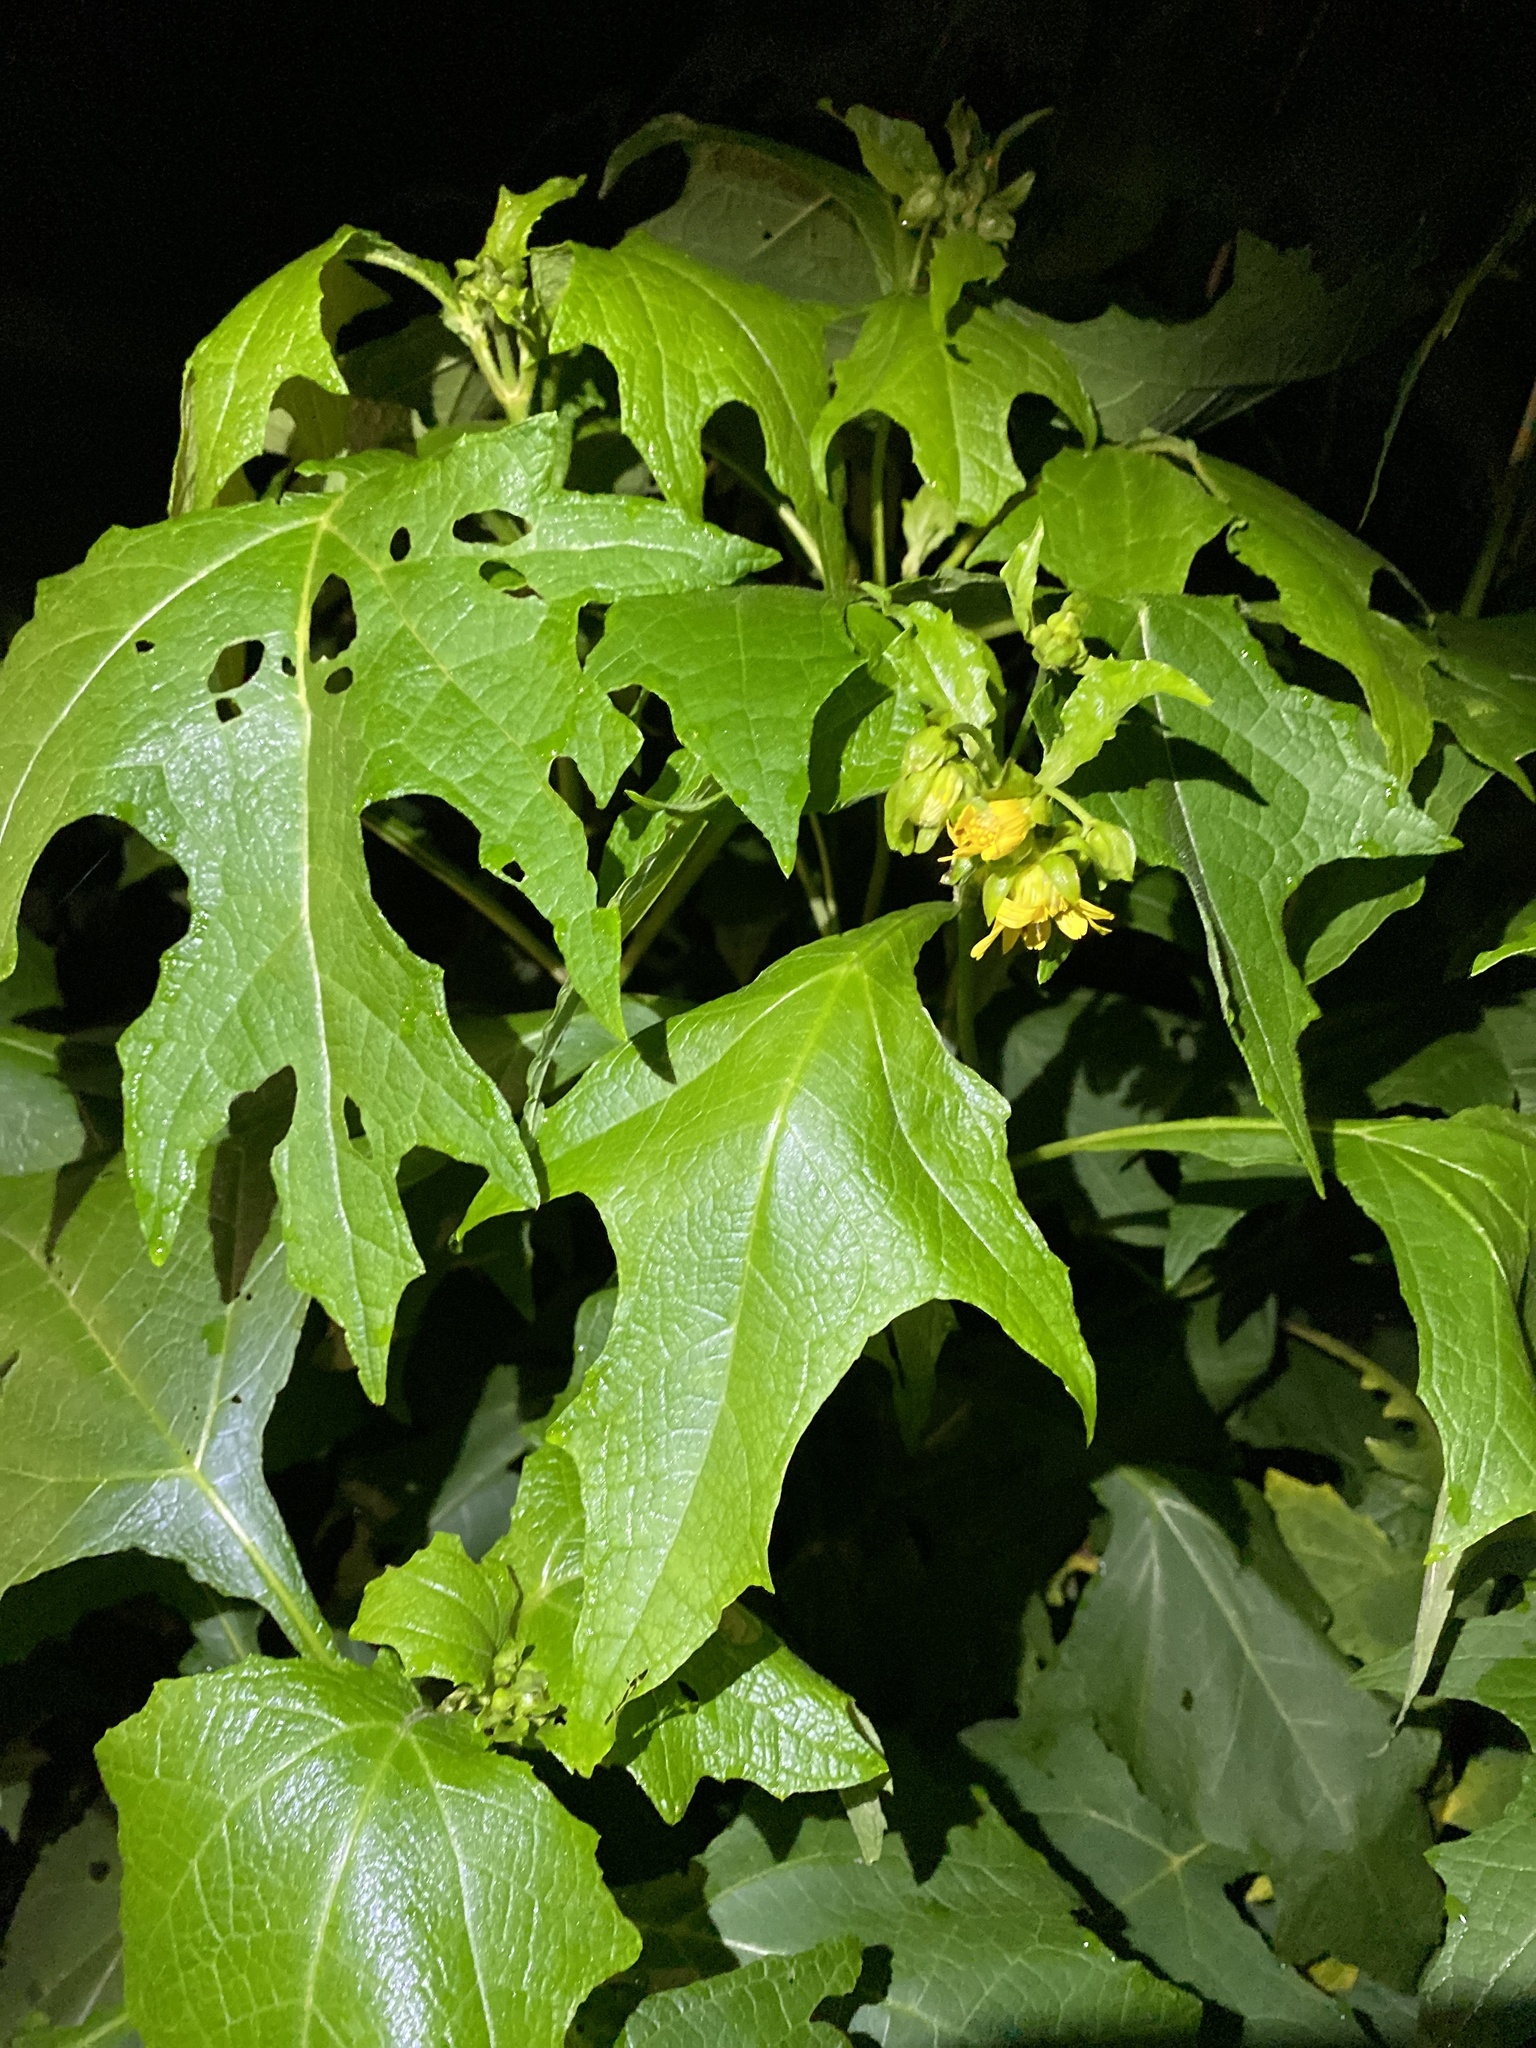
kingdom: Plantae
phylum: Tracheophyta
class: Magnoliopsida
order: Asterales
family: Asteraceae
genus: Smallanthus
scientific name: Smallanthus uvedalia
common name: Bear's-foot
